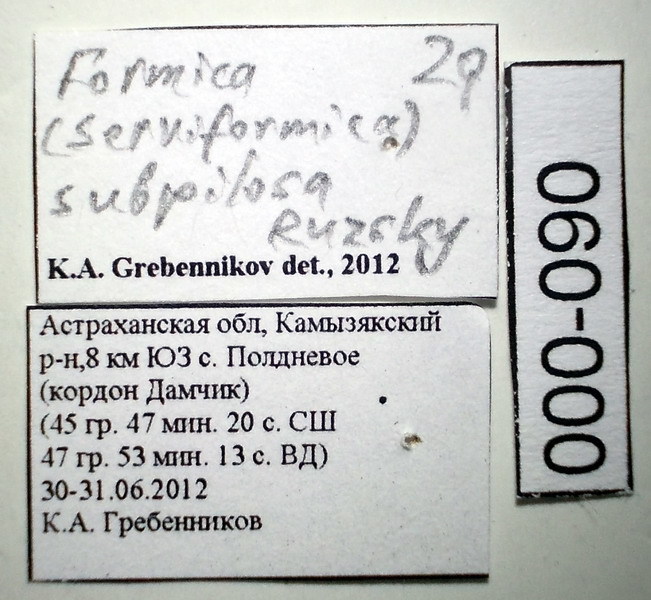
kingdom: Animalia
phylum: Arthropoda
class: Insecta
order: Hymenoptera
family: Formicidae
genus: Formica
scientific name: Formica subpilosa
